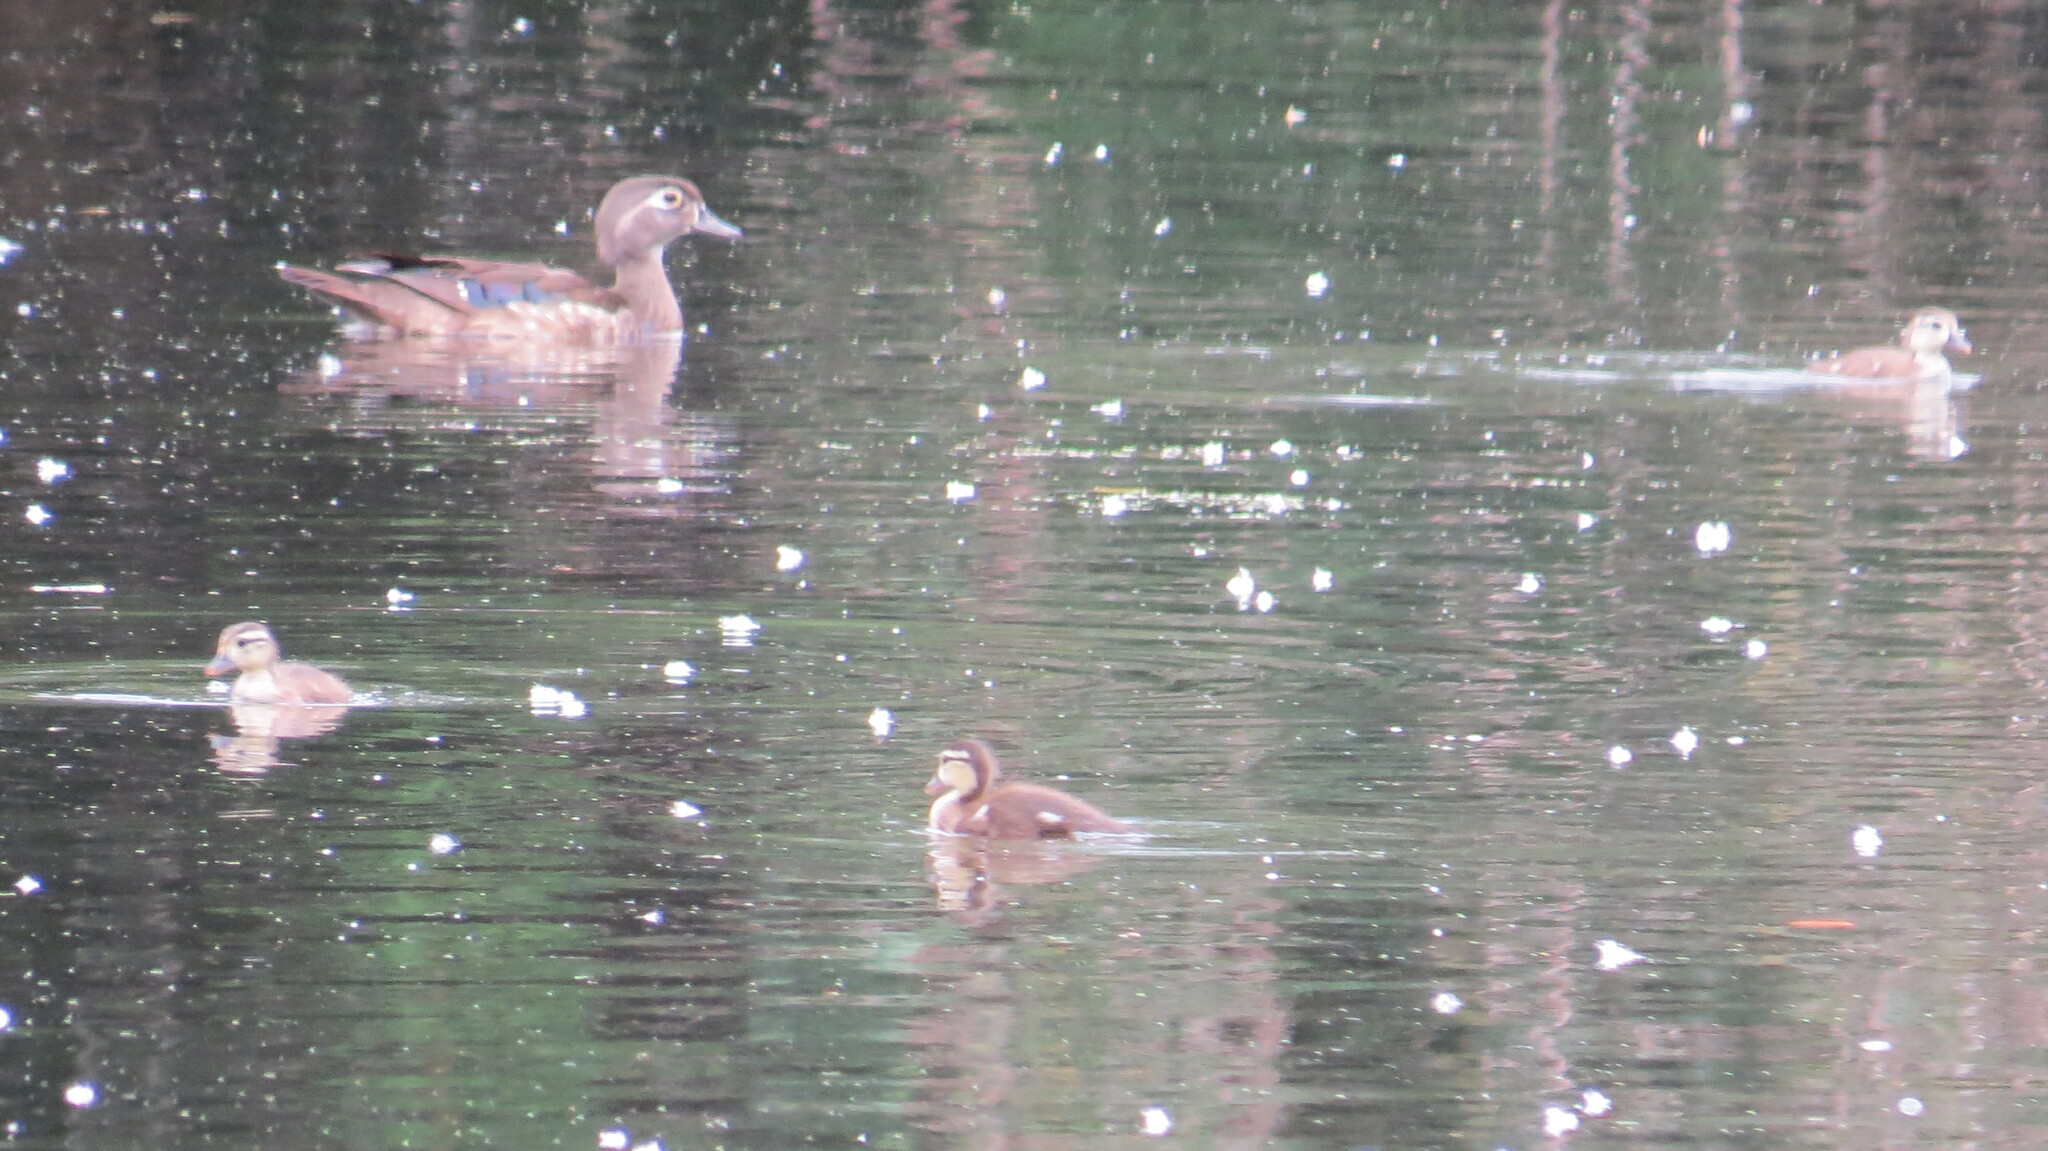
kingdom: Animalia
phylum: Chordata
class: Aves
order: Anseriformes
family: Anatidae
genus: Aix
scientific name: Aix sponsa
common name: Wood duck
